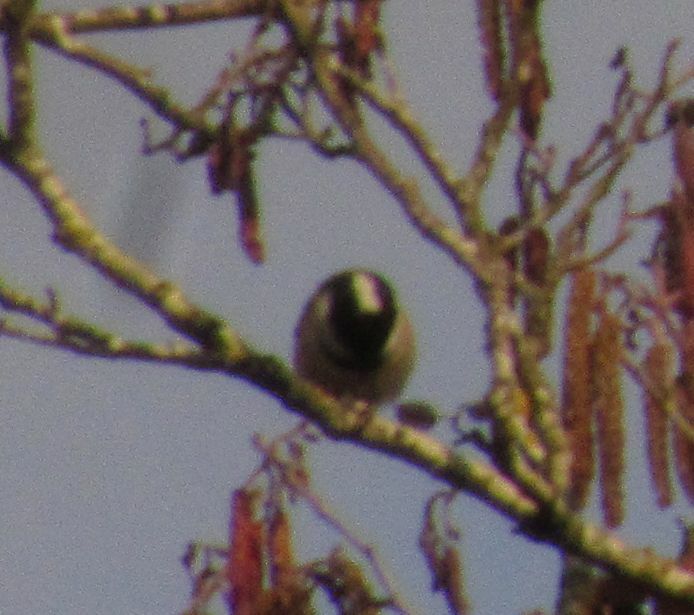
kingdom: Animalia
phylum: Chordata
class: Aves
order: Passeriformes
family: Paridae
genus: Periparus
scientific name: Periparus ater
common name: Coal tit
